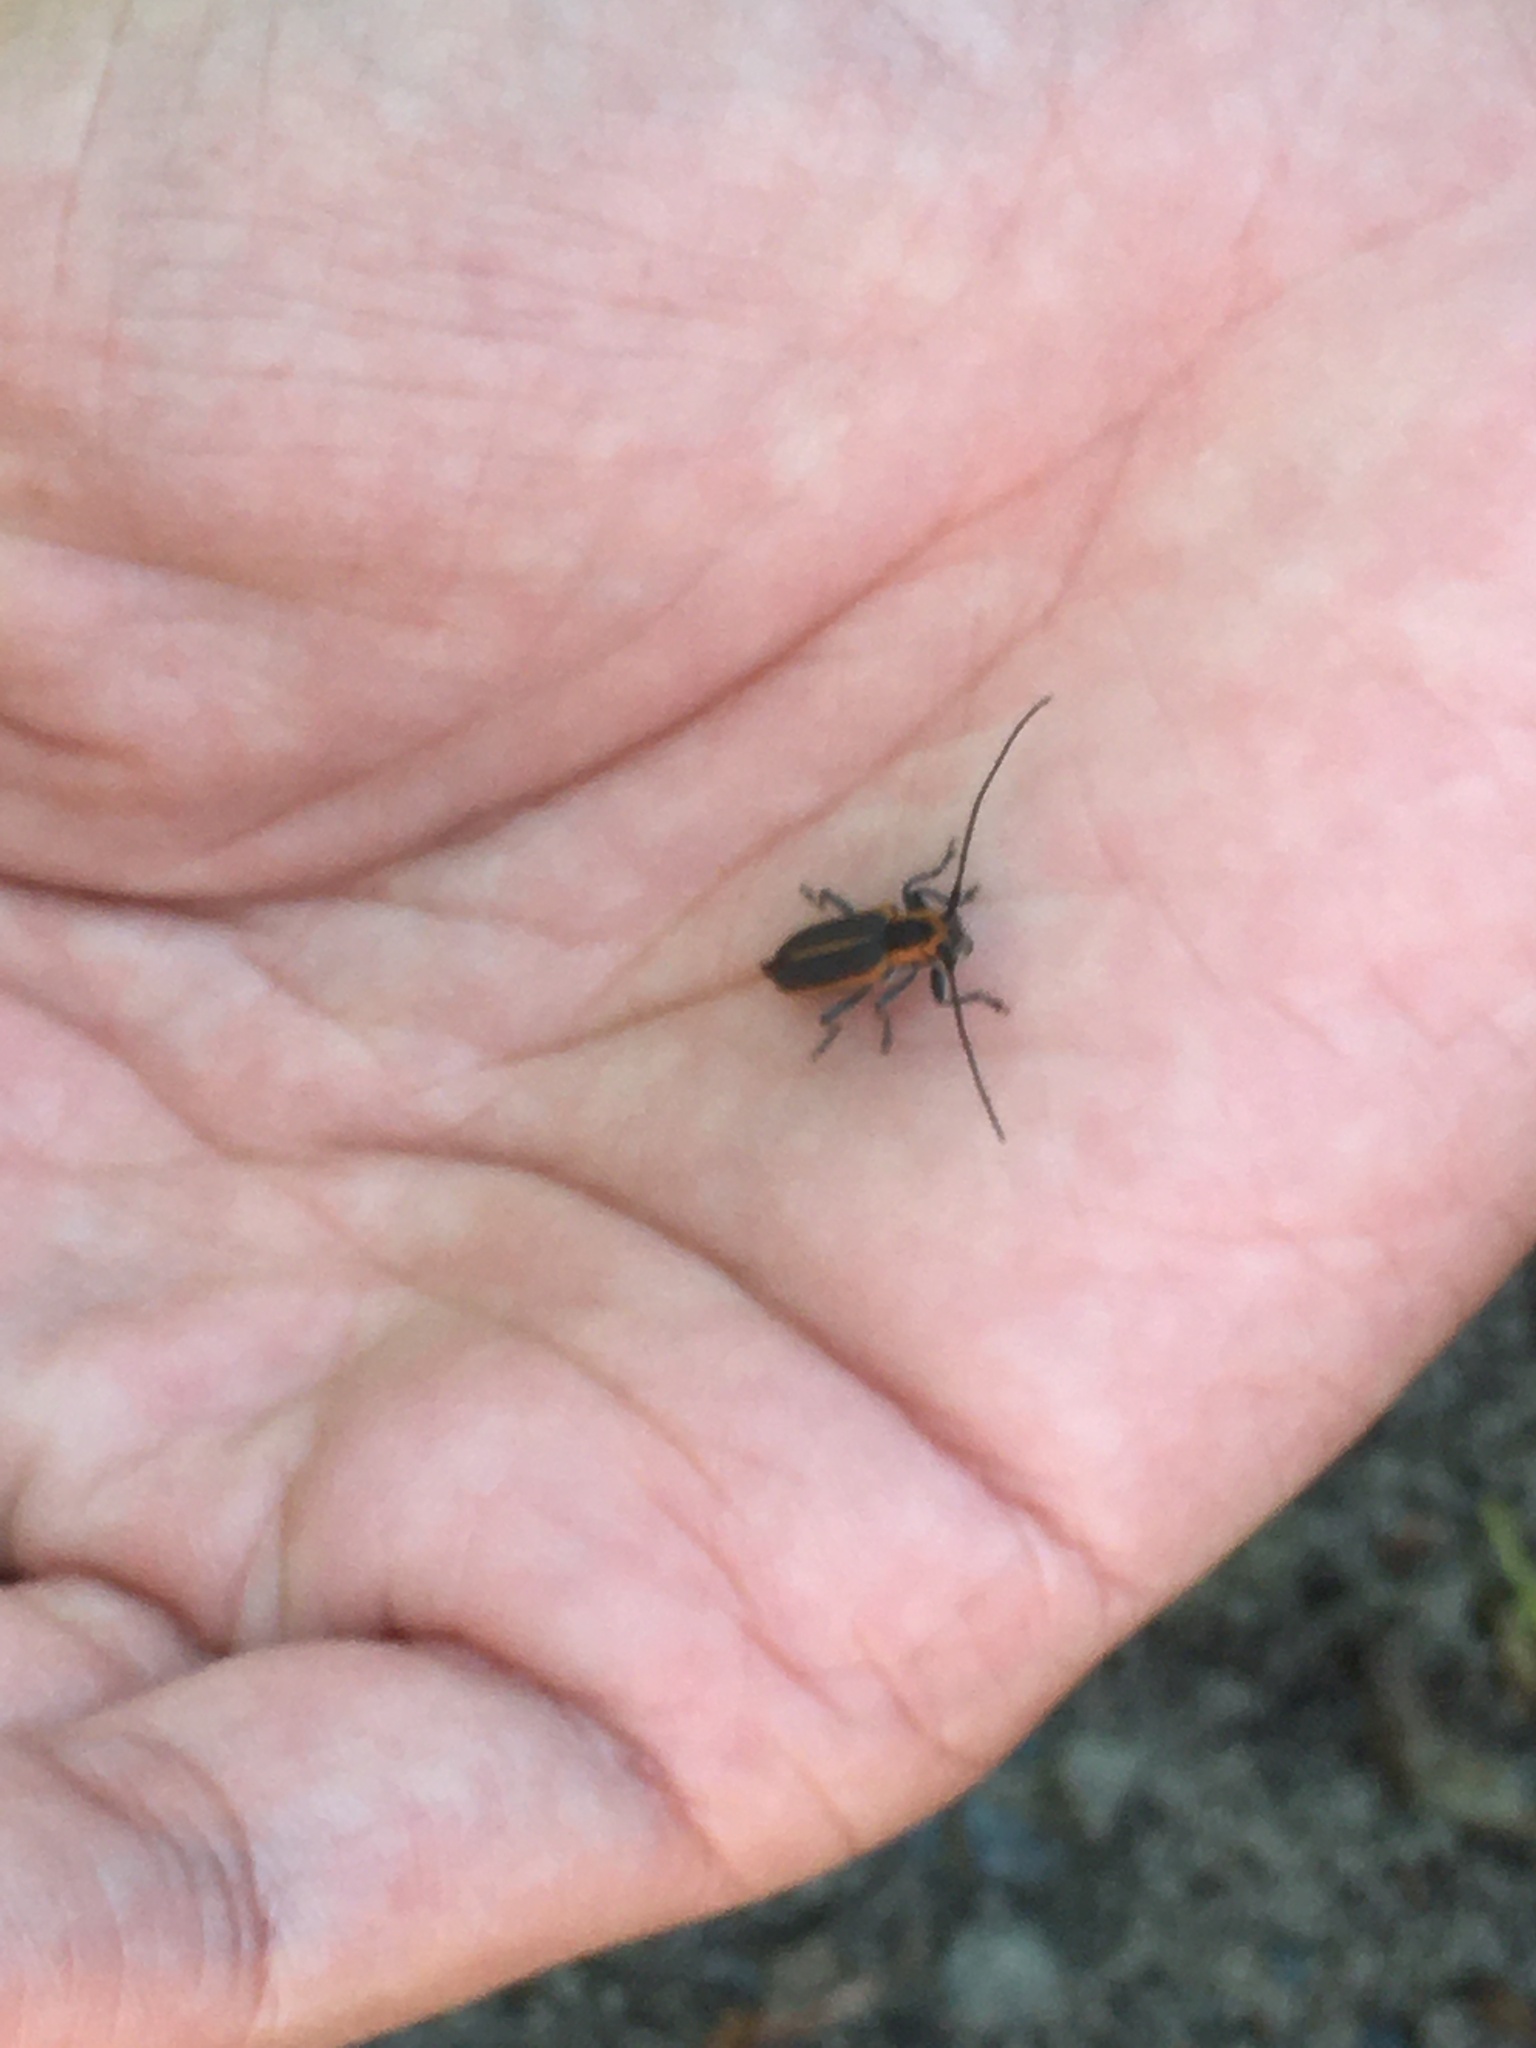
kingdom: Animalia
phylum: Arthropoda
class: Insecta
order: Coleoptera
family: Cerambycidae
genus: Saperda
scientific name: Saperda lateralis
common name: Red-edged saperda
